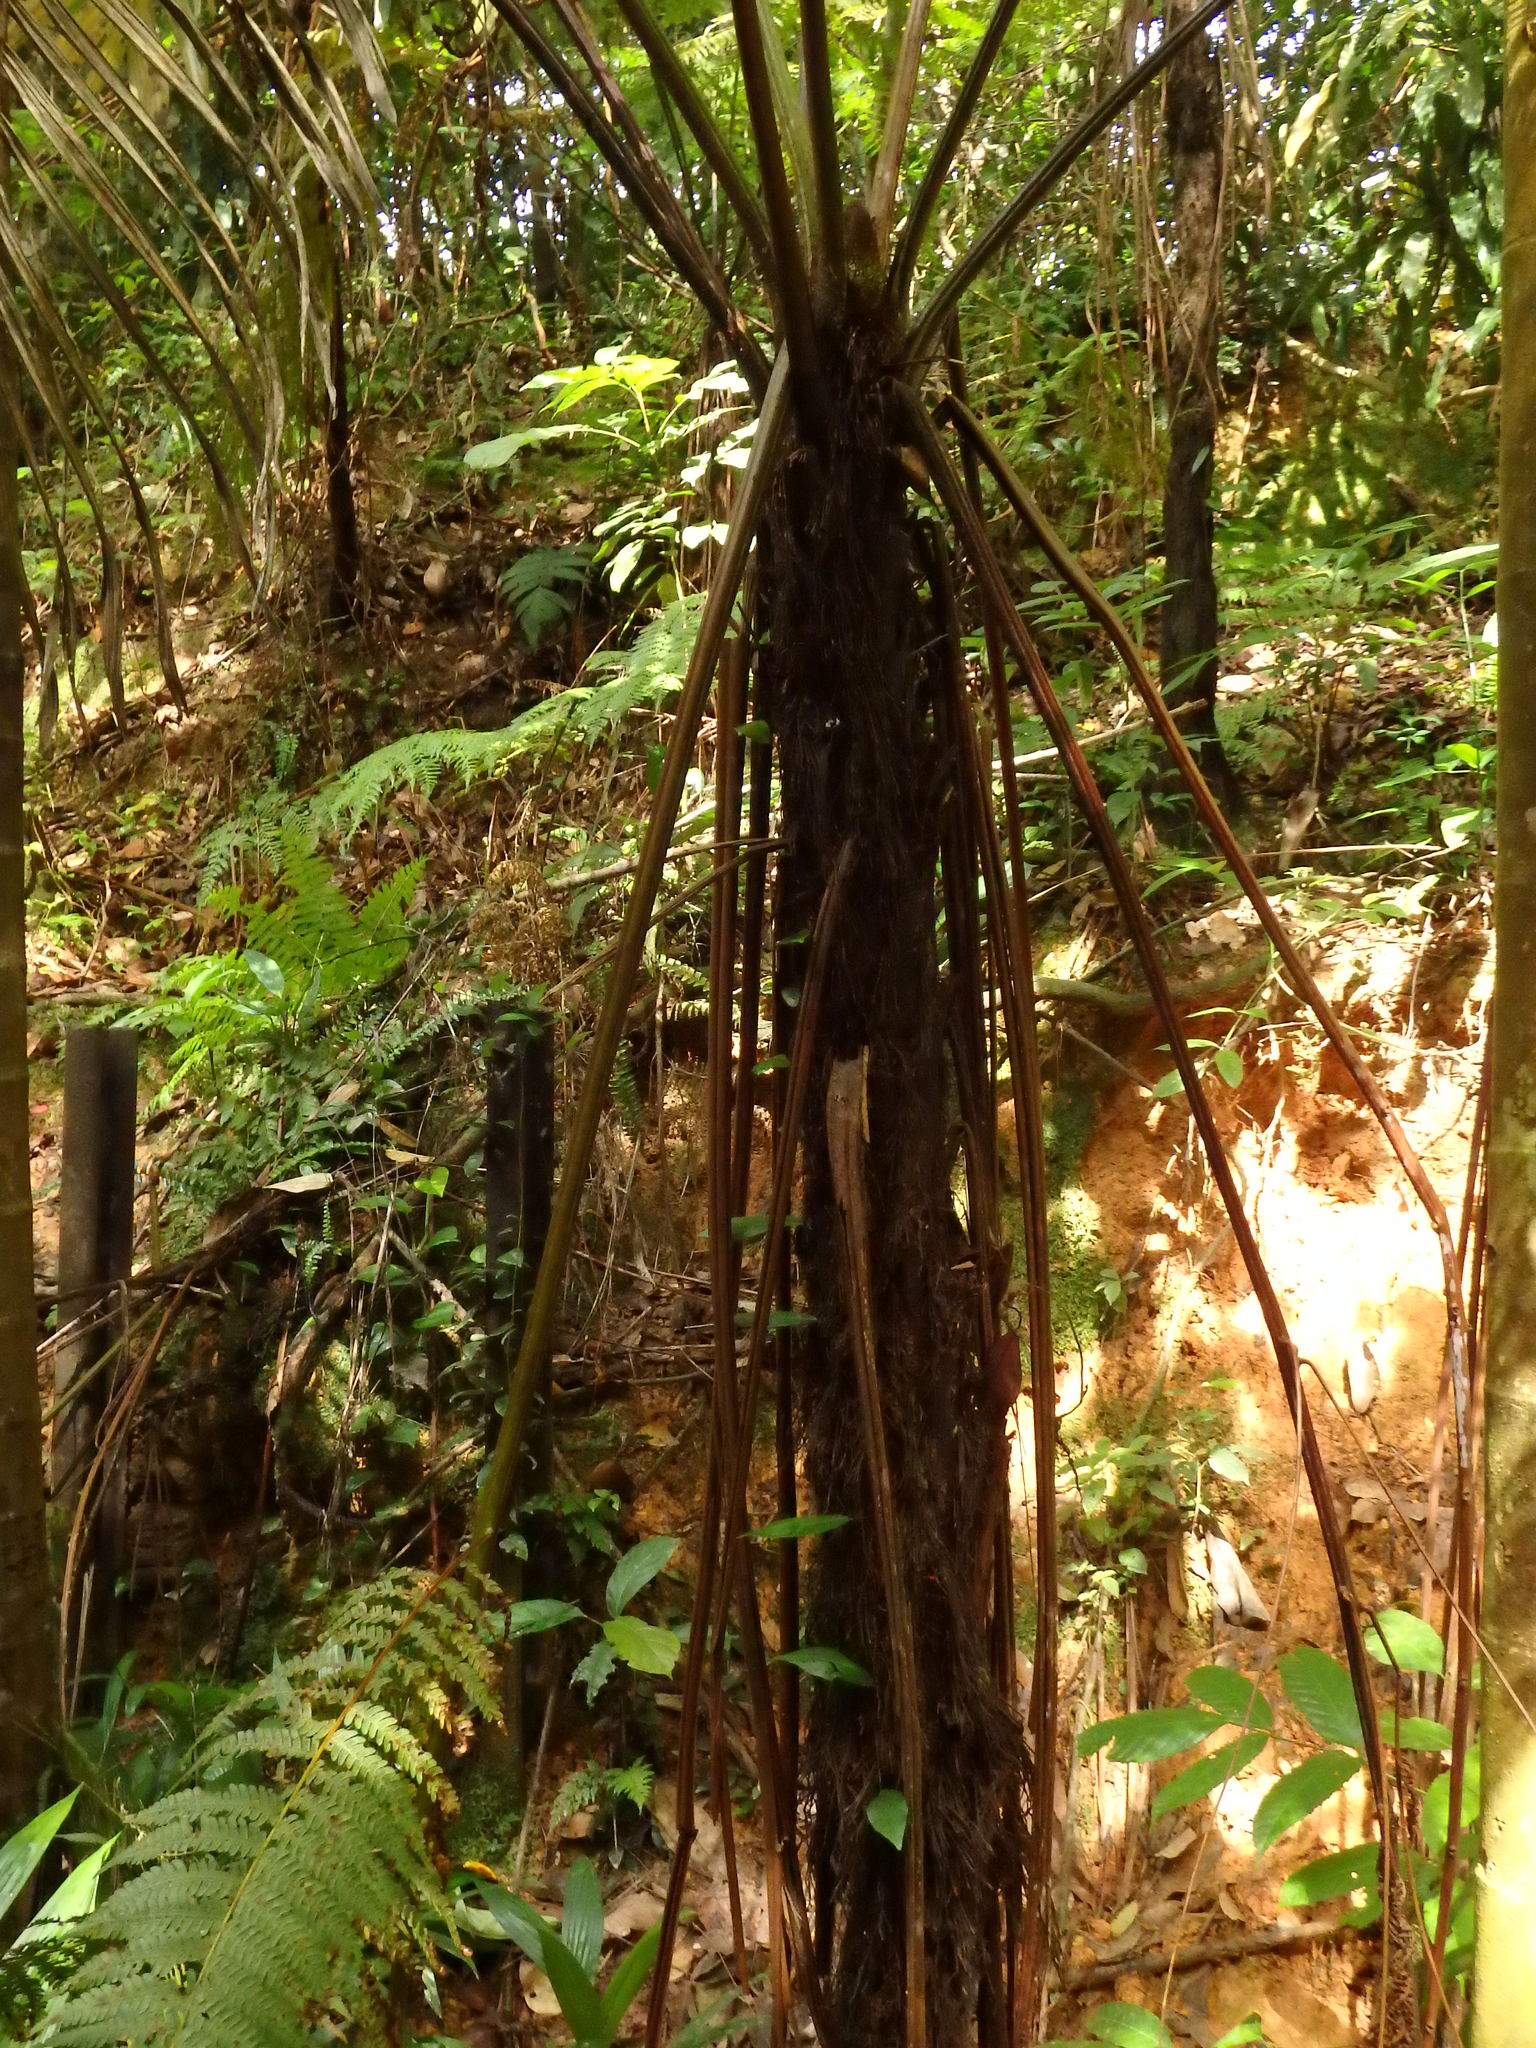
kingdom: Plantae
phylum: Tracheophyta
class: Polypodiopsida
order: Cyatheales
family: Cyatheaceae
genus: Alsophila
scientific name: Alsophila latebrosa
